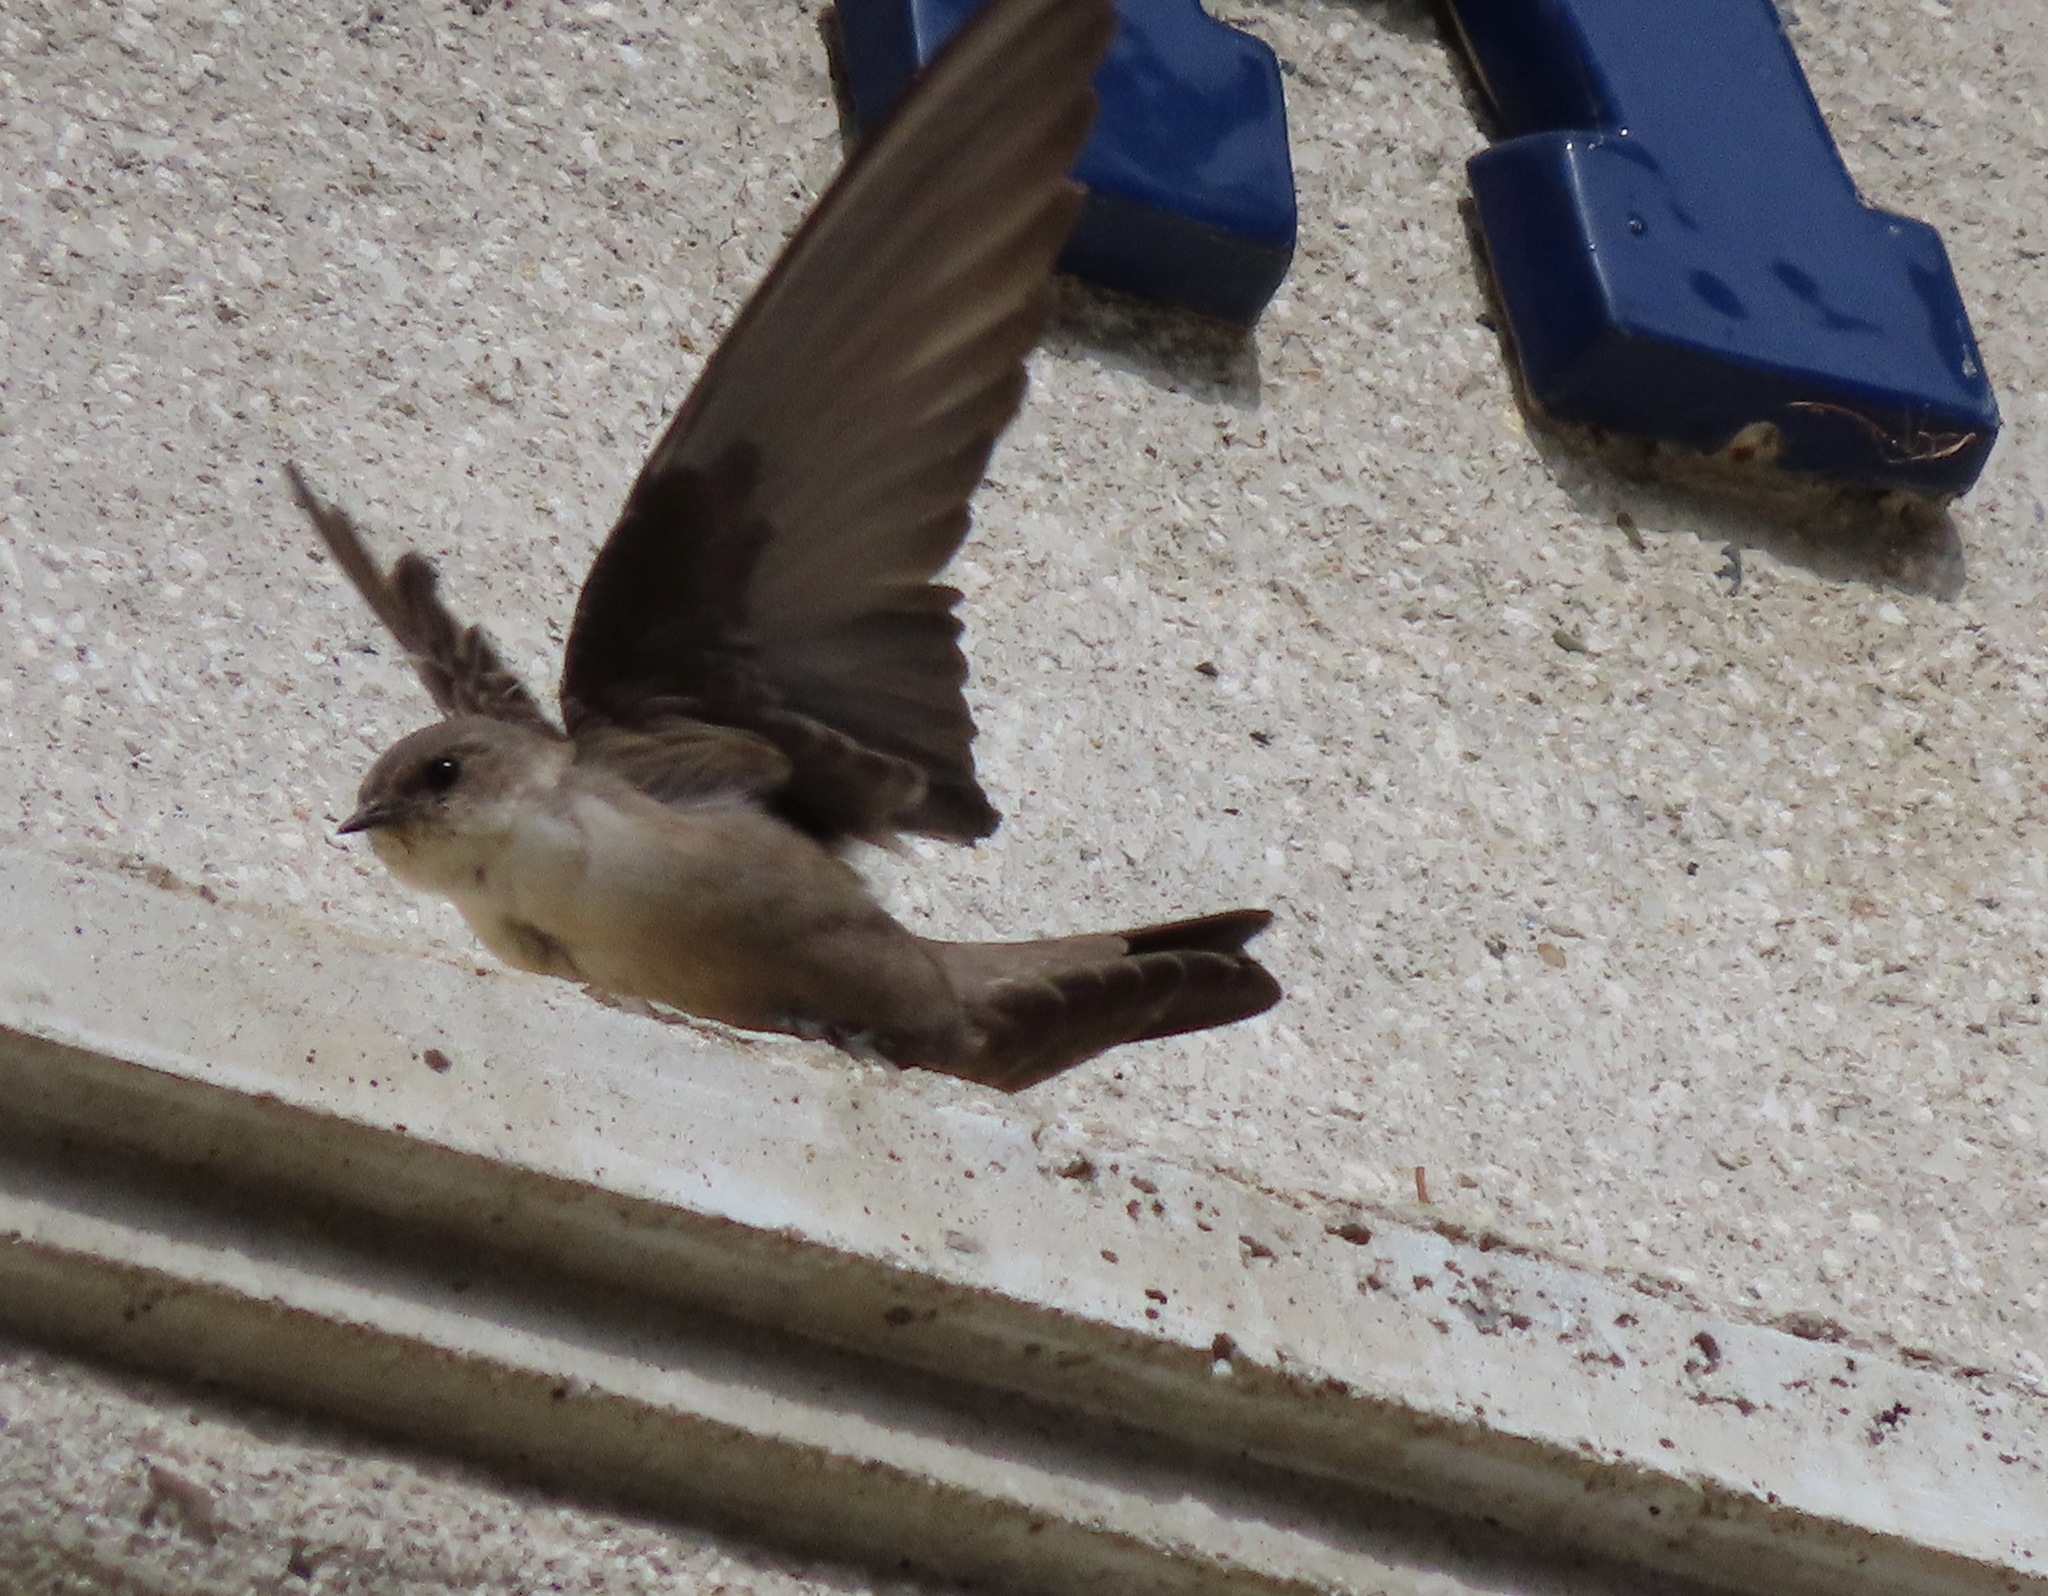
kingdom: Animalia
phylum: Chordata
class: Aves
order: Passeriformes
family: Hirundinidae
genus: Ptyonoprogne
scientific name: Ptyonoprogne rupestris
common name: Eurasian crag martin
